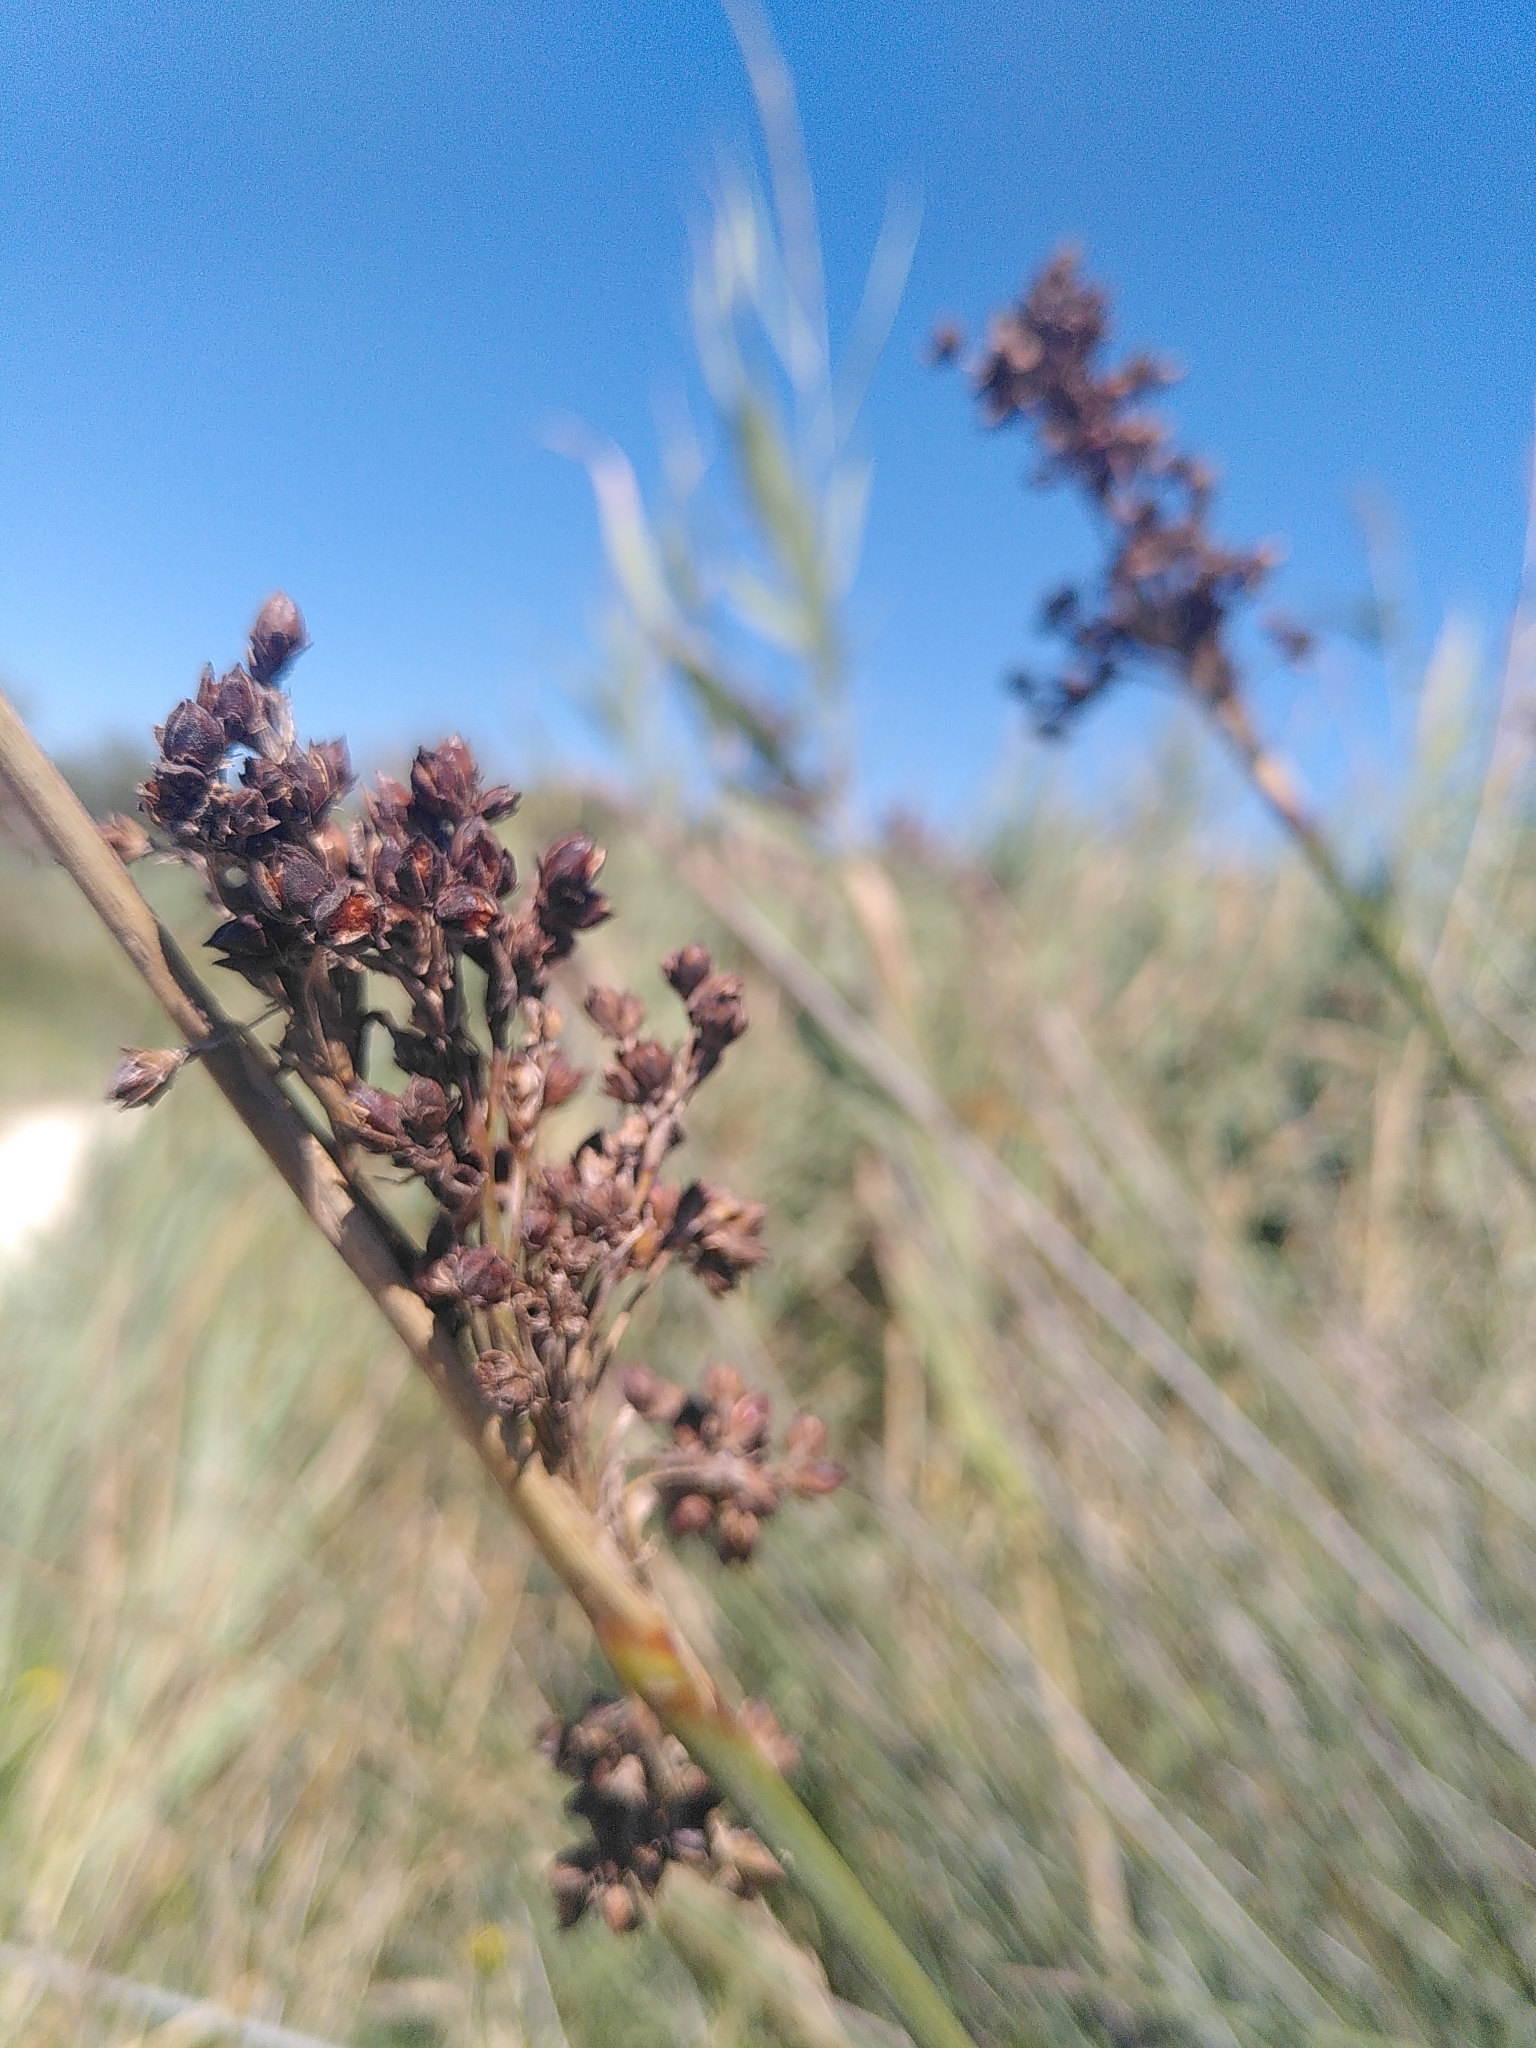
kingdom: Plantae
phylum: Tracheophyta
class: Liliopsida
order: Poales
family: Juncaceae
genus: Juncus
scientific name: Juncus acutus
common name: Sharp rush
